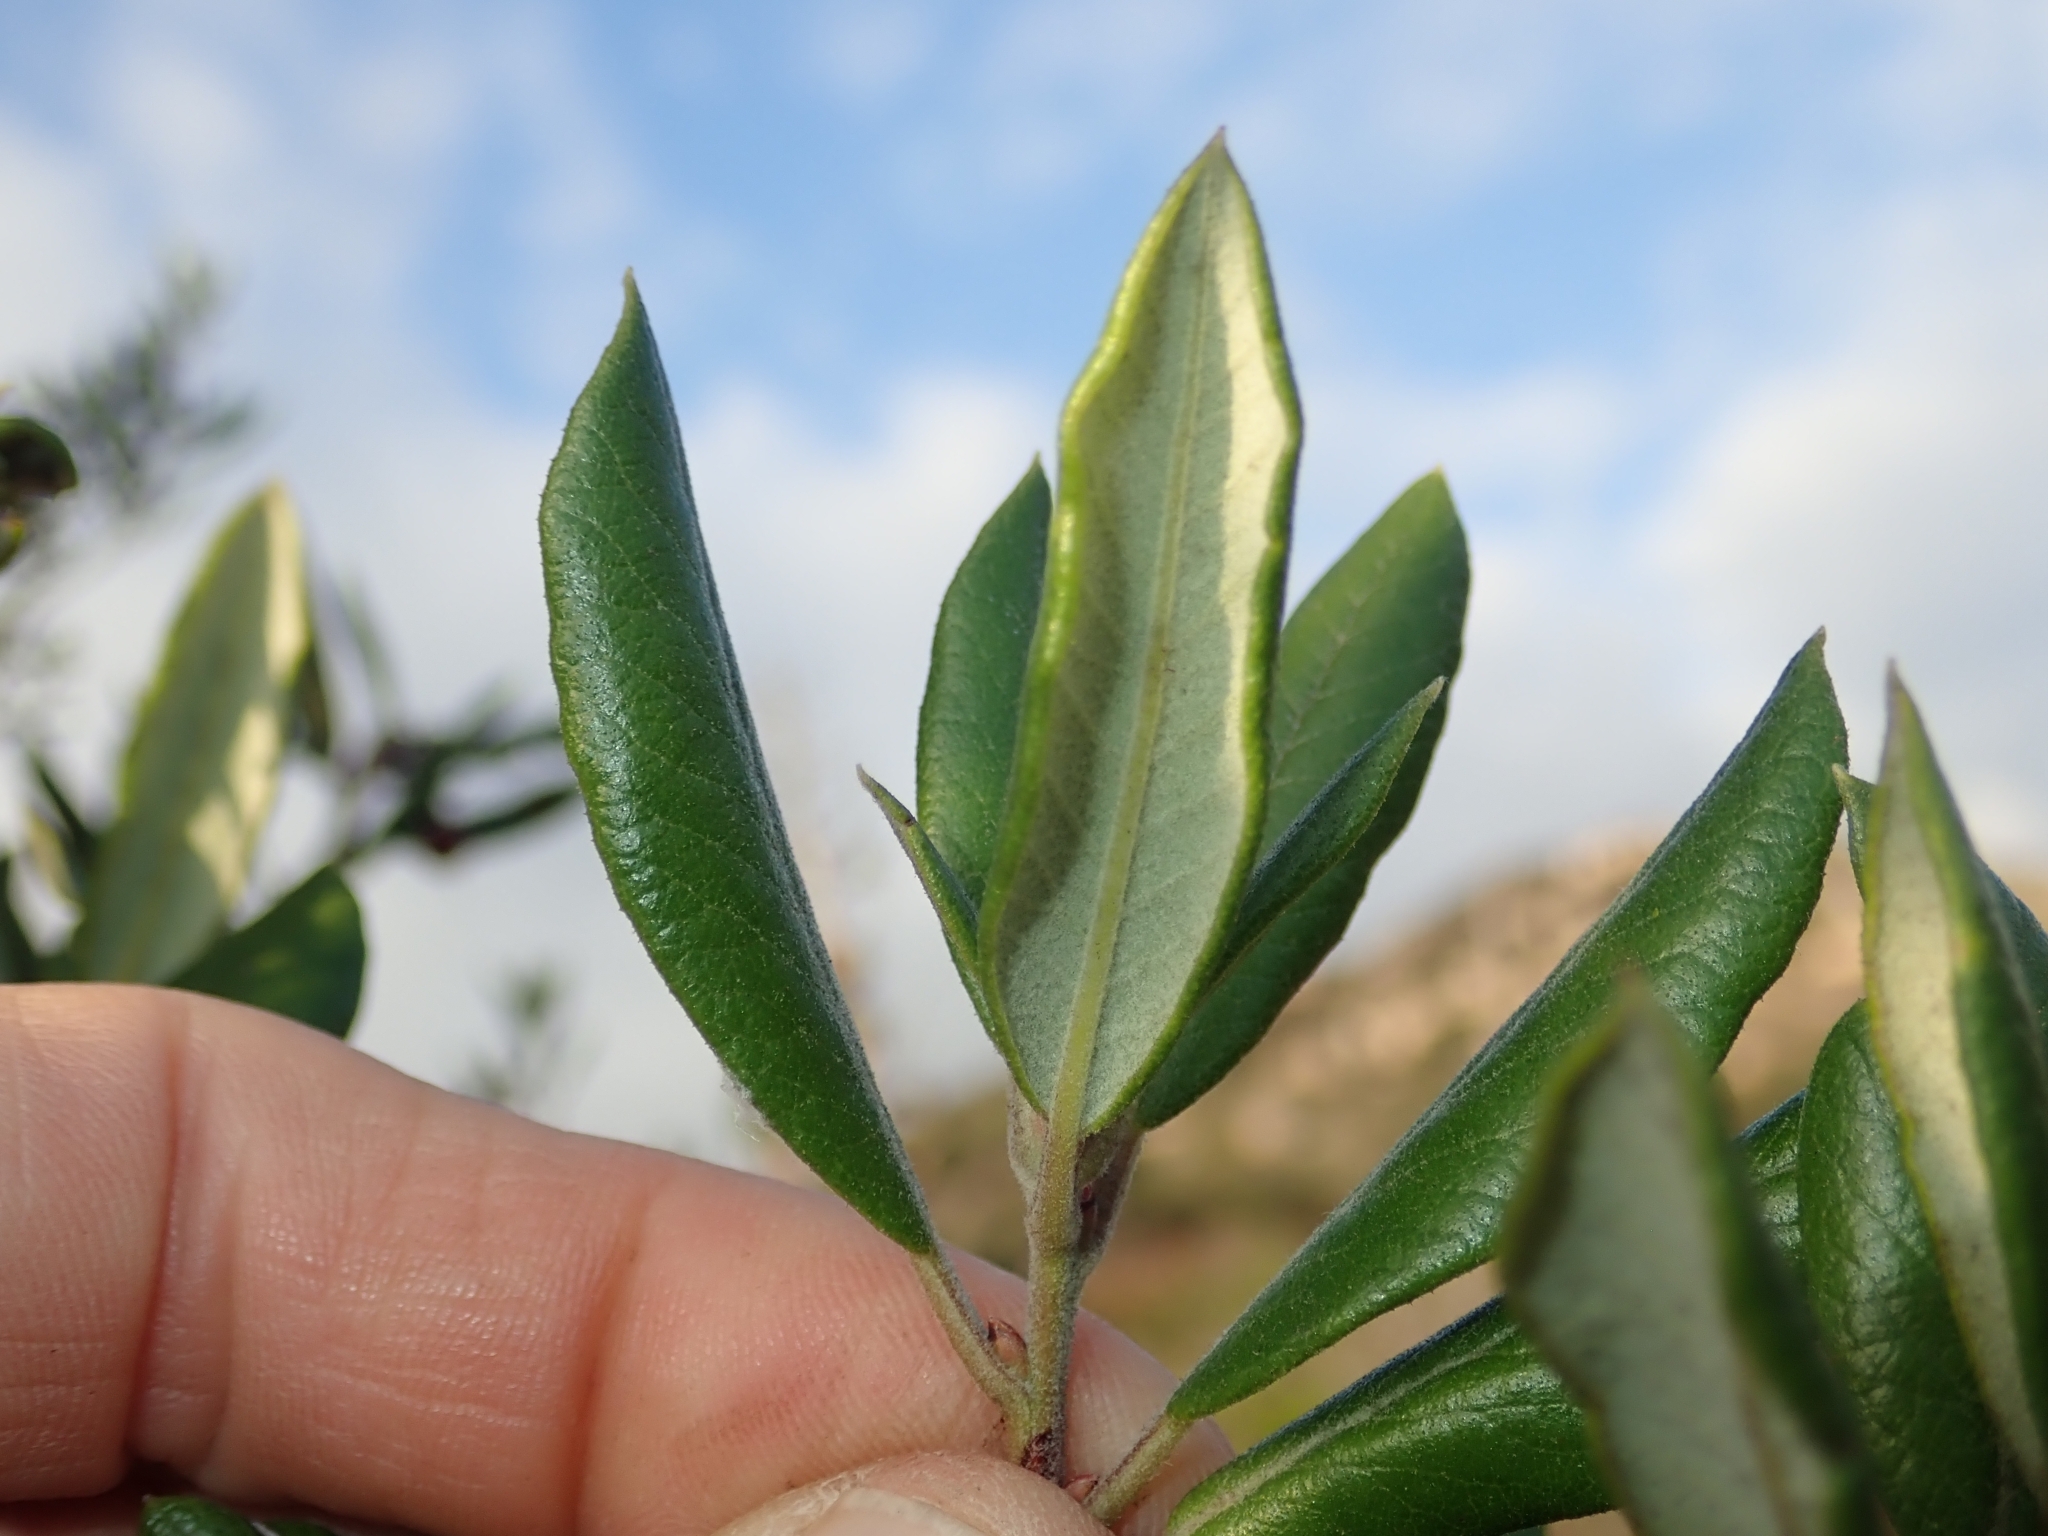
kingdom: Plantae
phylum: Tracheophyta
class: Magnoliopsida
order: Ericales
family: Ericaceae
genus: Arctostaphylos
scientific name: Arctostaphylos bicolor
